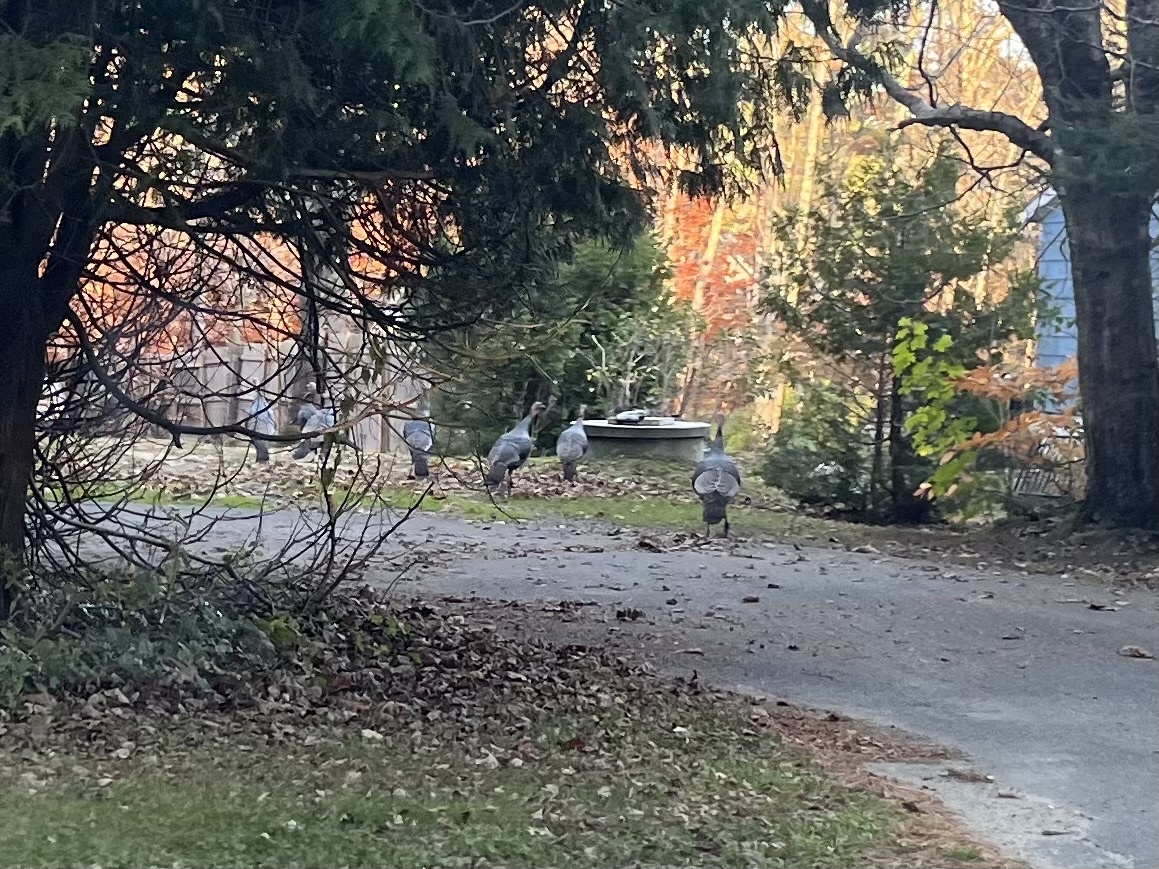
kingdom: Animalia
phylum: Chordata
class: Aves
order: Galliformes
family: Phasianidae
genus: Meleagris
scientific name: Meleagris gallopavo
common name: Wild turkey
